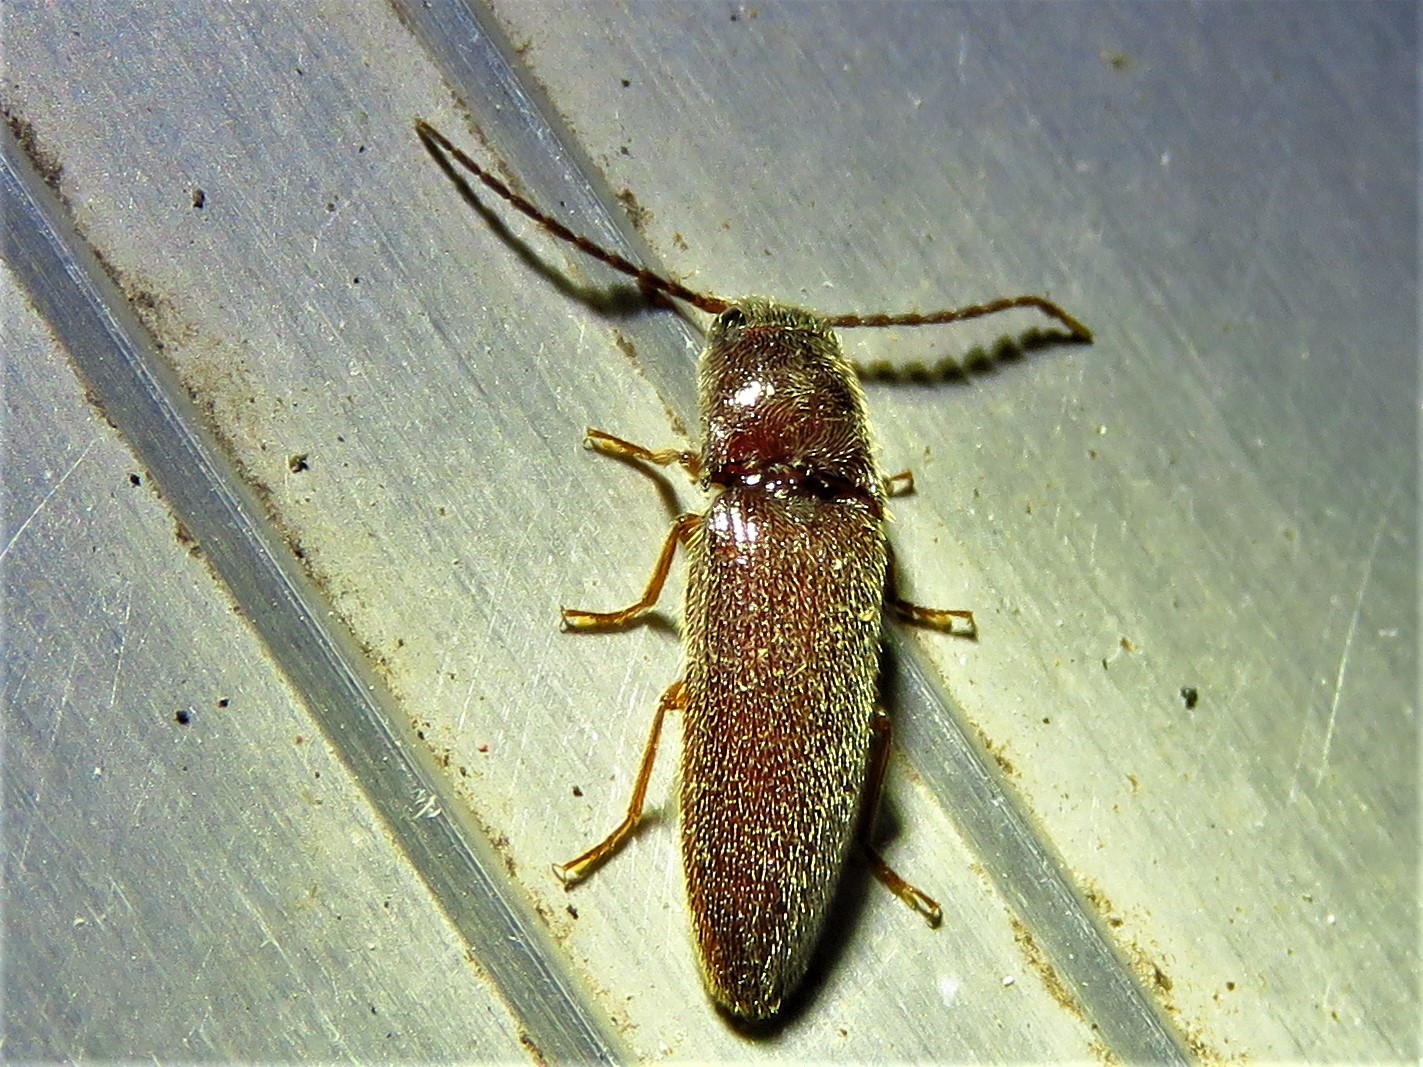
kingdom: Animalia
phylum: Arthropoda
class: Insecta
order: Coleoptera
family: Elateridae
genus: Dipropus
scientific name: Dipropus
